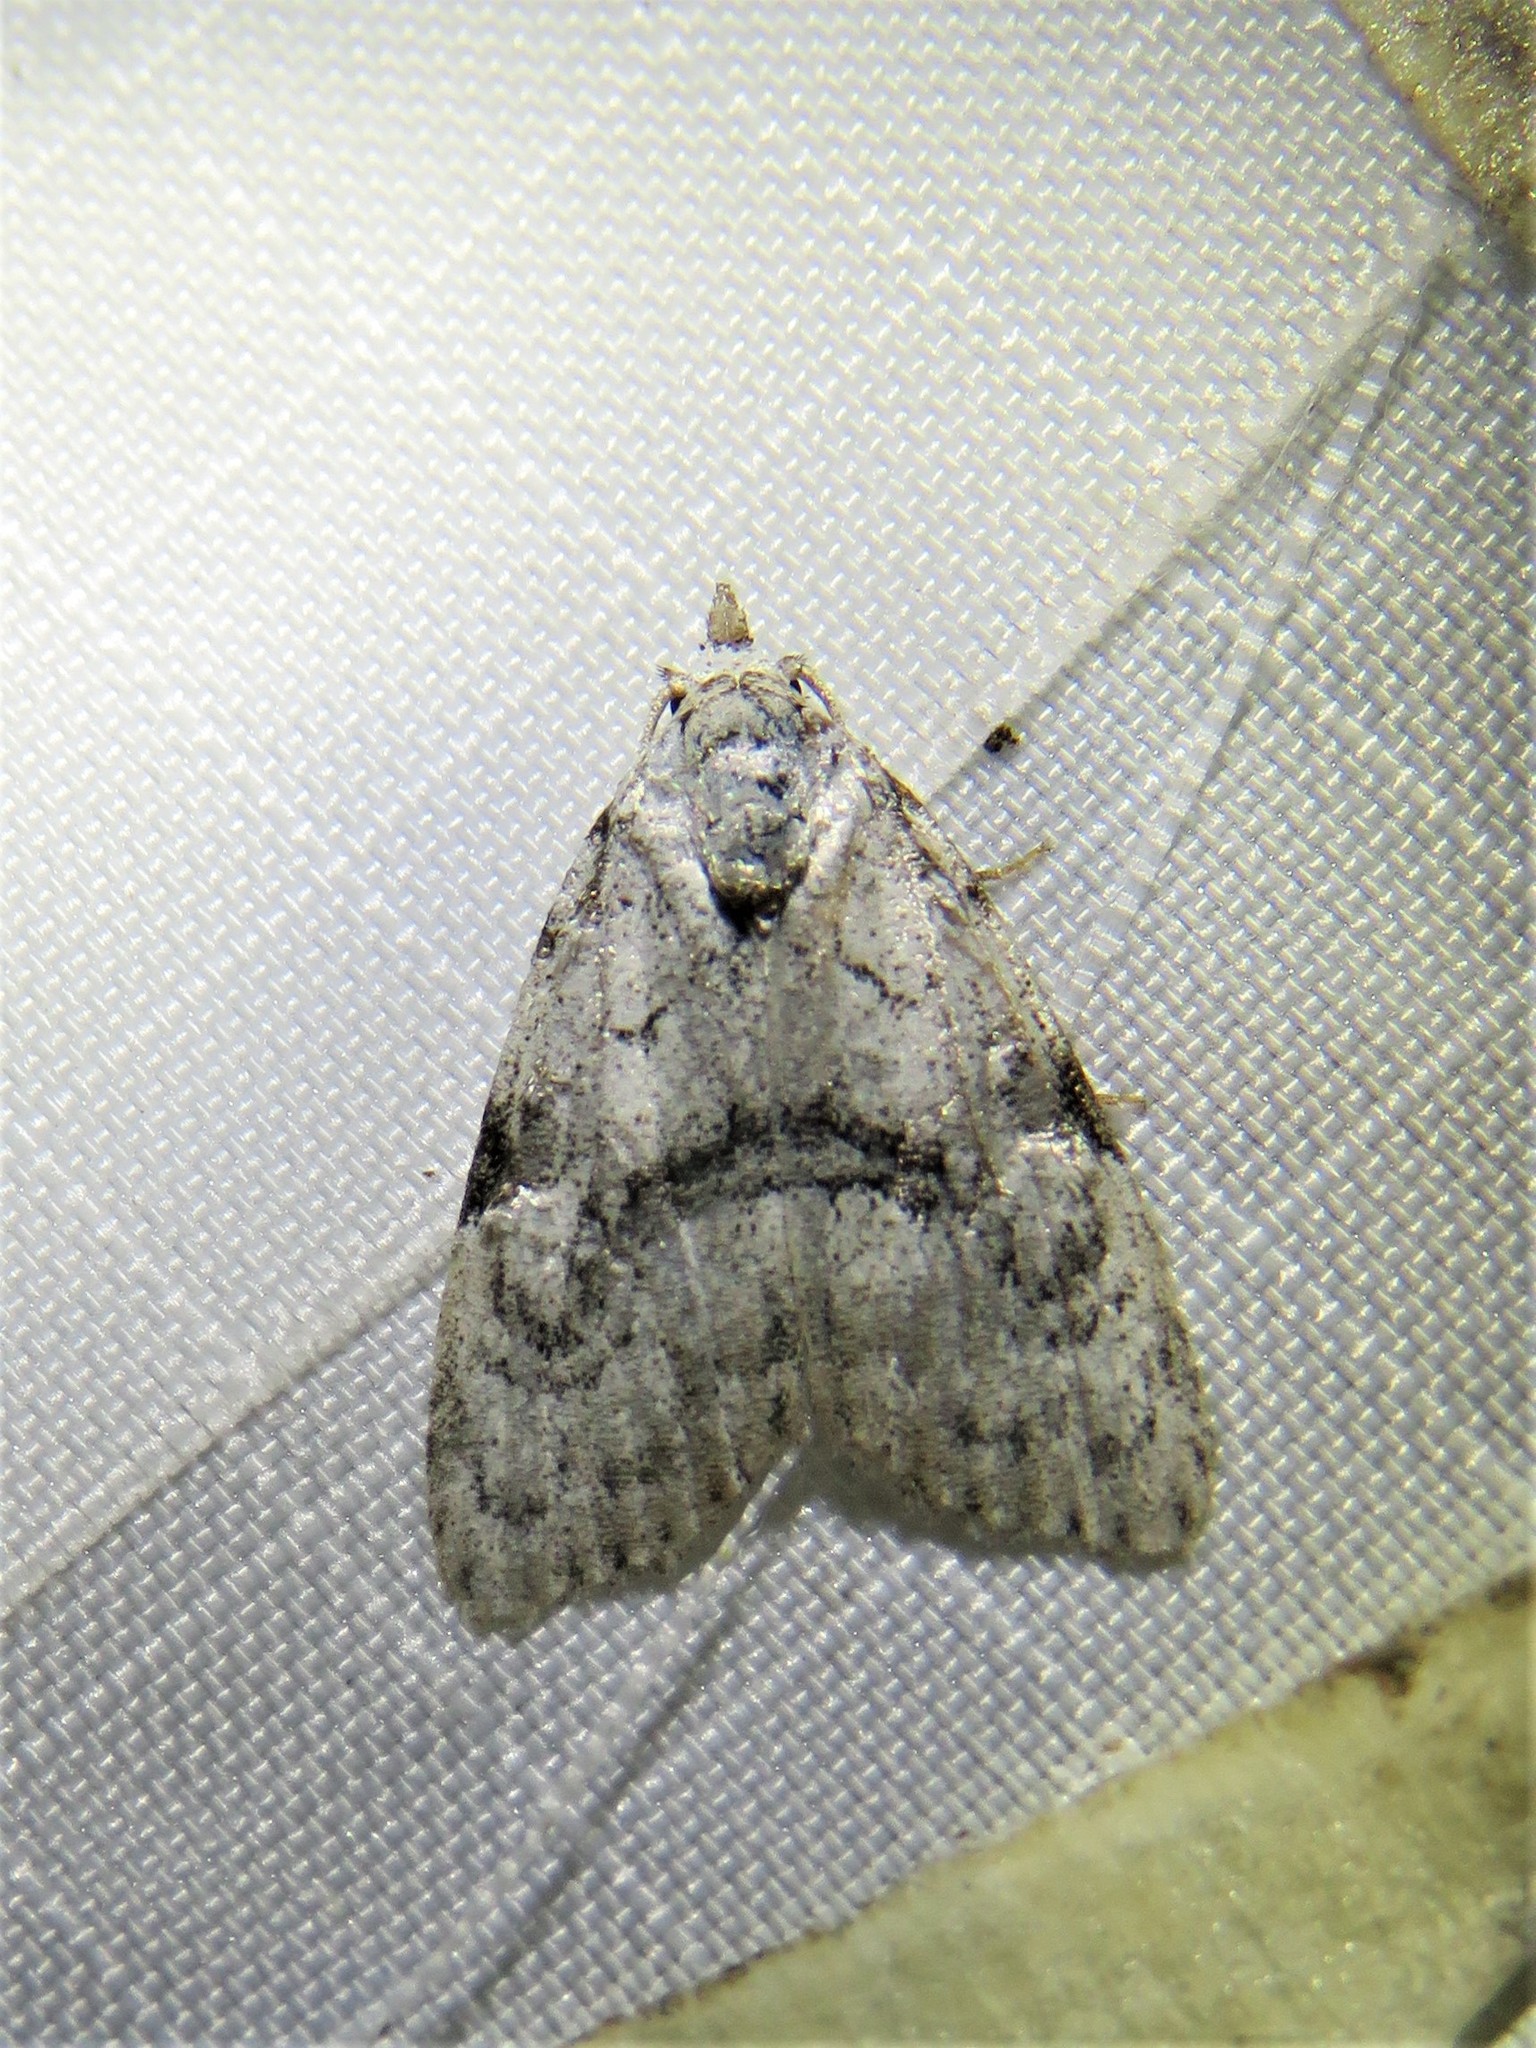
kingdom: Animalia
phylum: Arthropoda
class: Insecta
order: Lepidoptera
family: Nolidae
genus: Meganola
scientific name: Meganola minuscula
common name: Confused meganola moth
